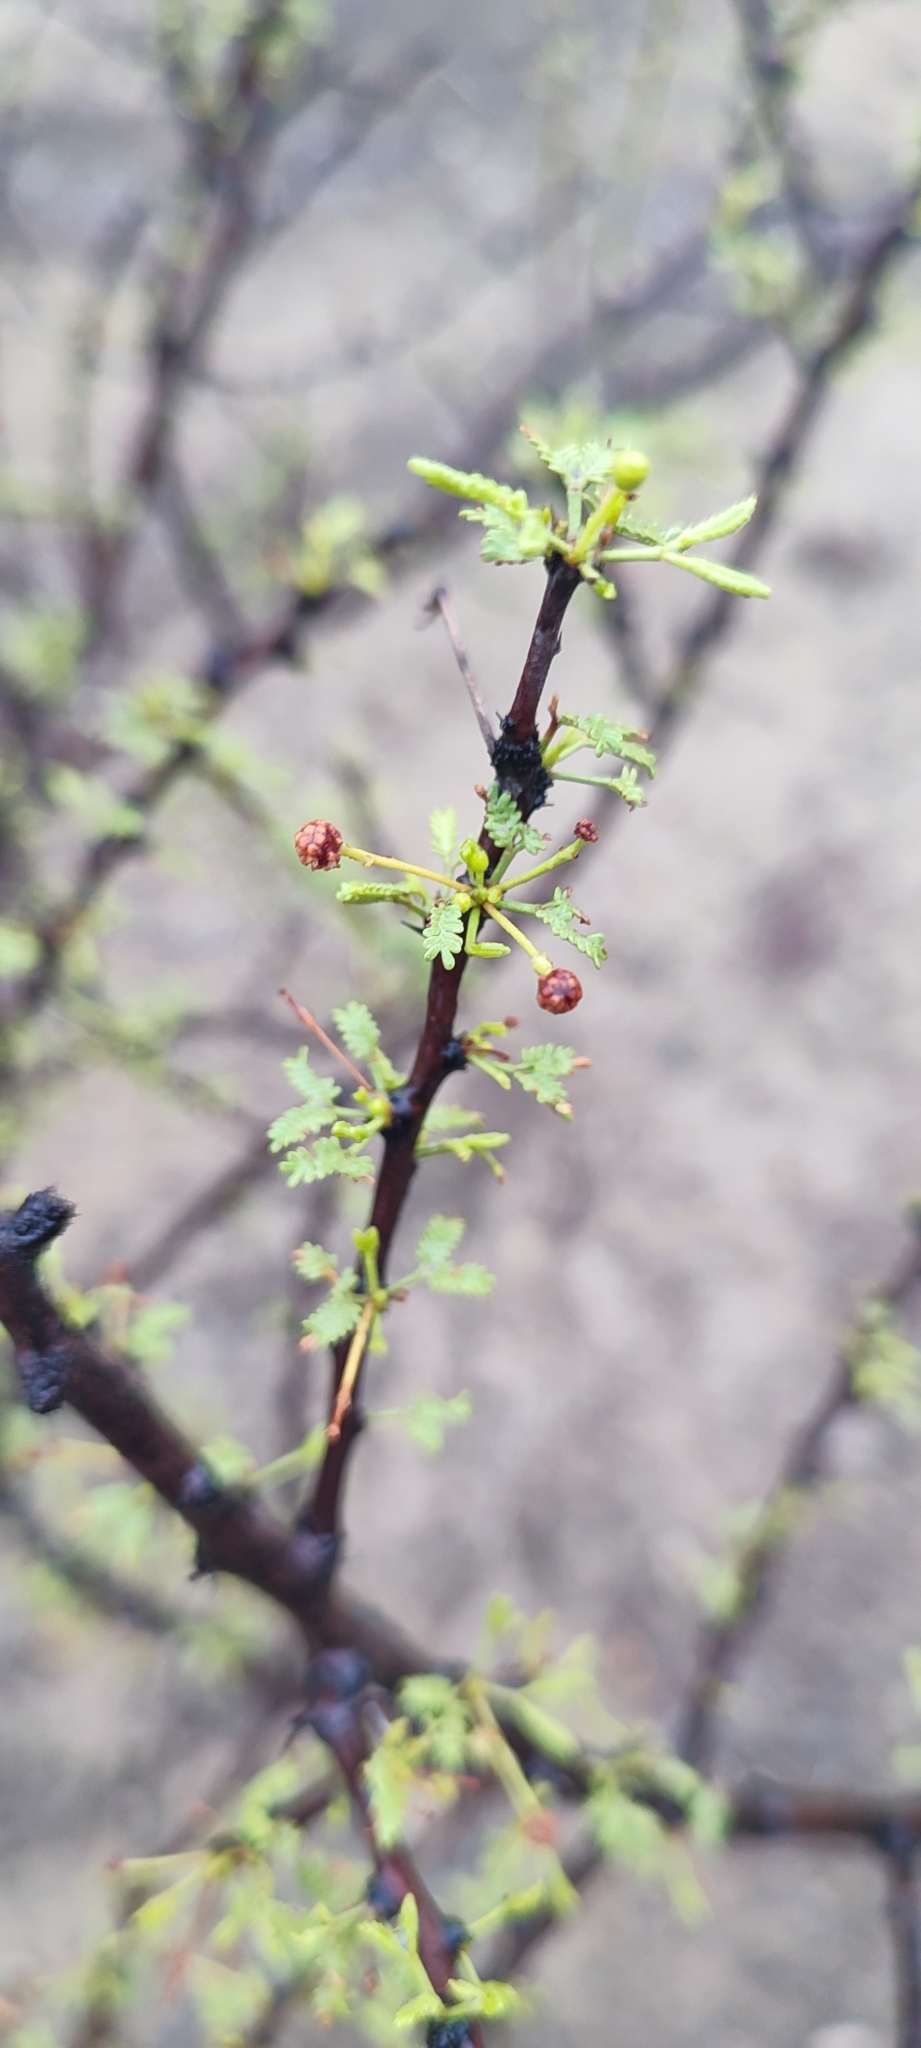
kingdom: Plantae
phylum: Tracheophyta
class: Magnoliopsida
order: Fabales
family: Fabaceae
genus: Vachellia
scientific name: Vachellia vernicosa
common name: Viscid acacia
